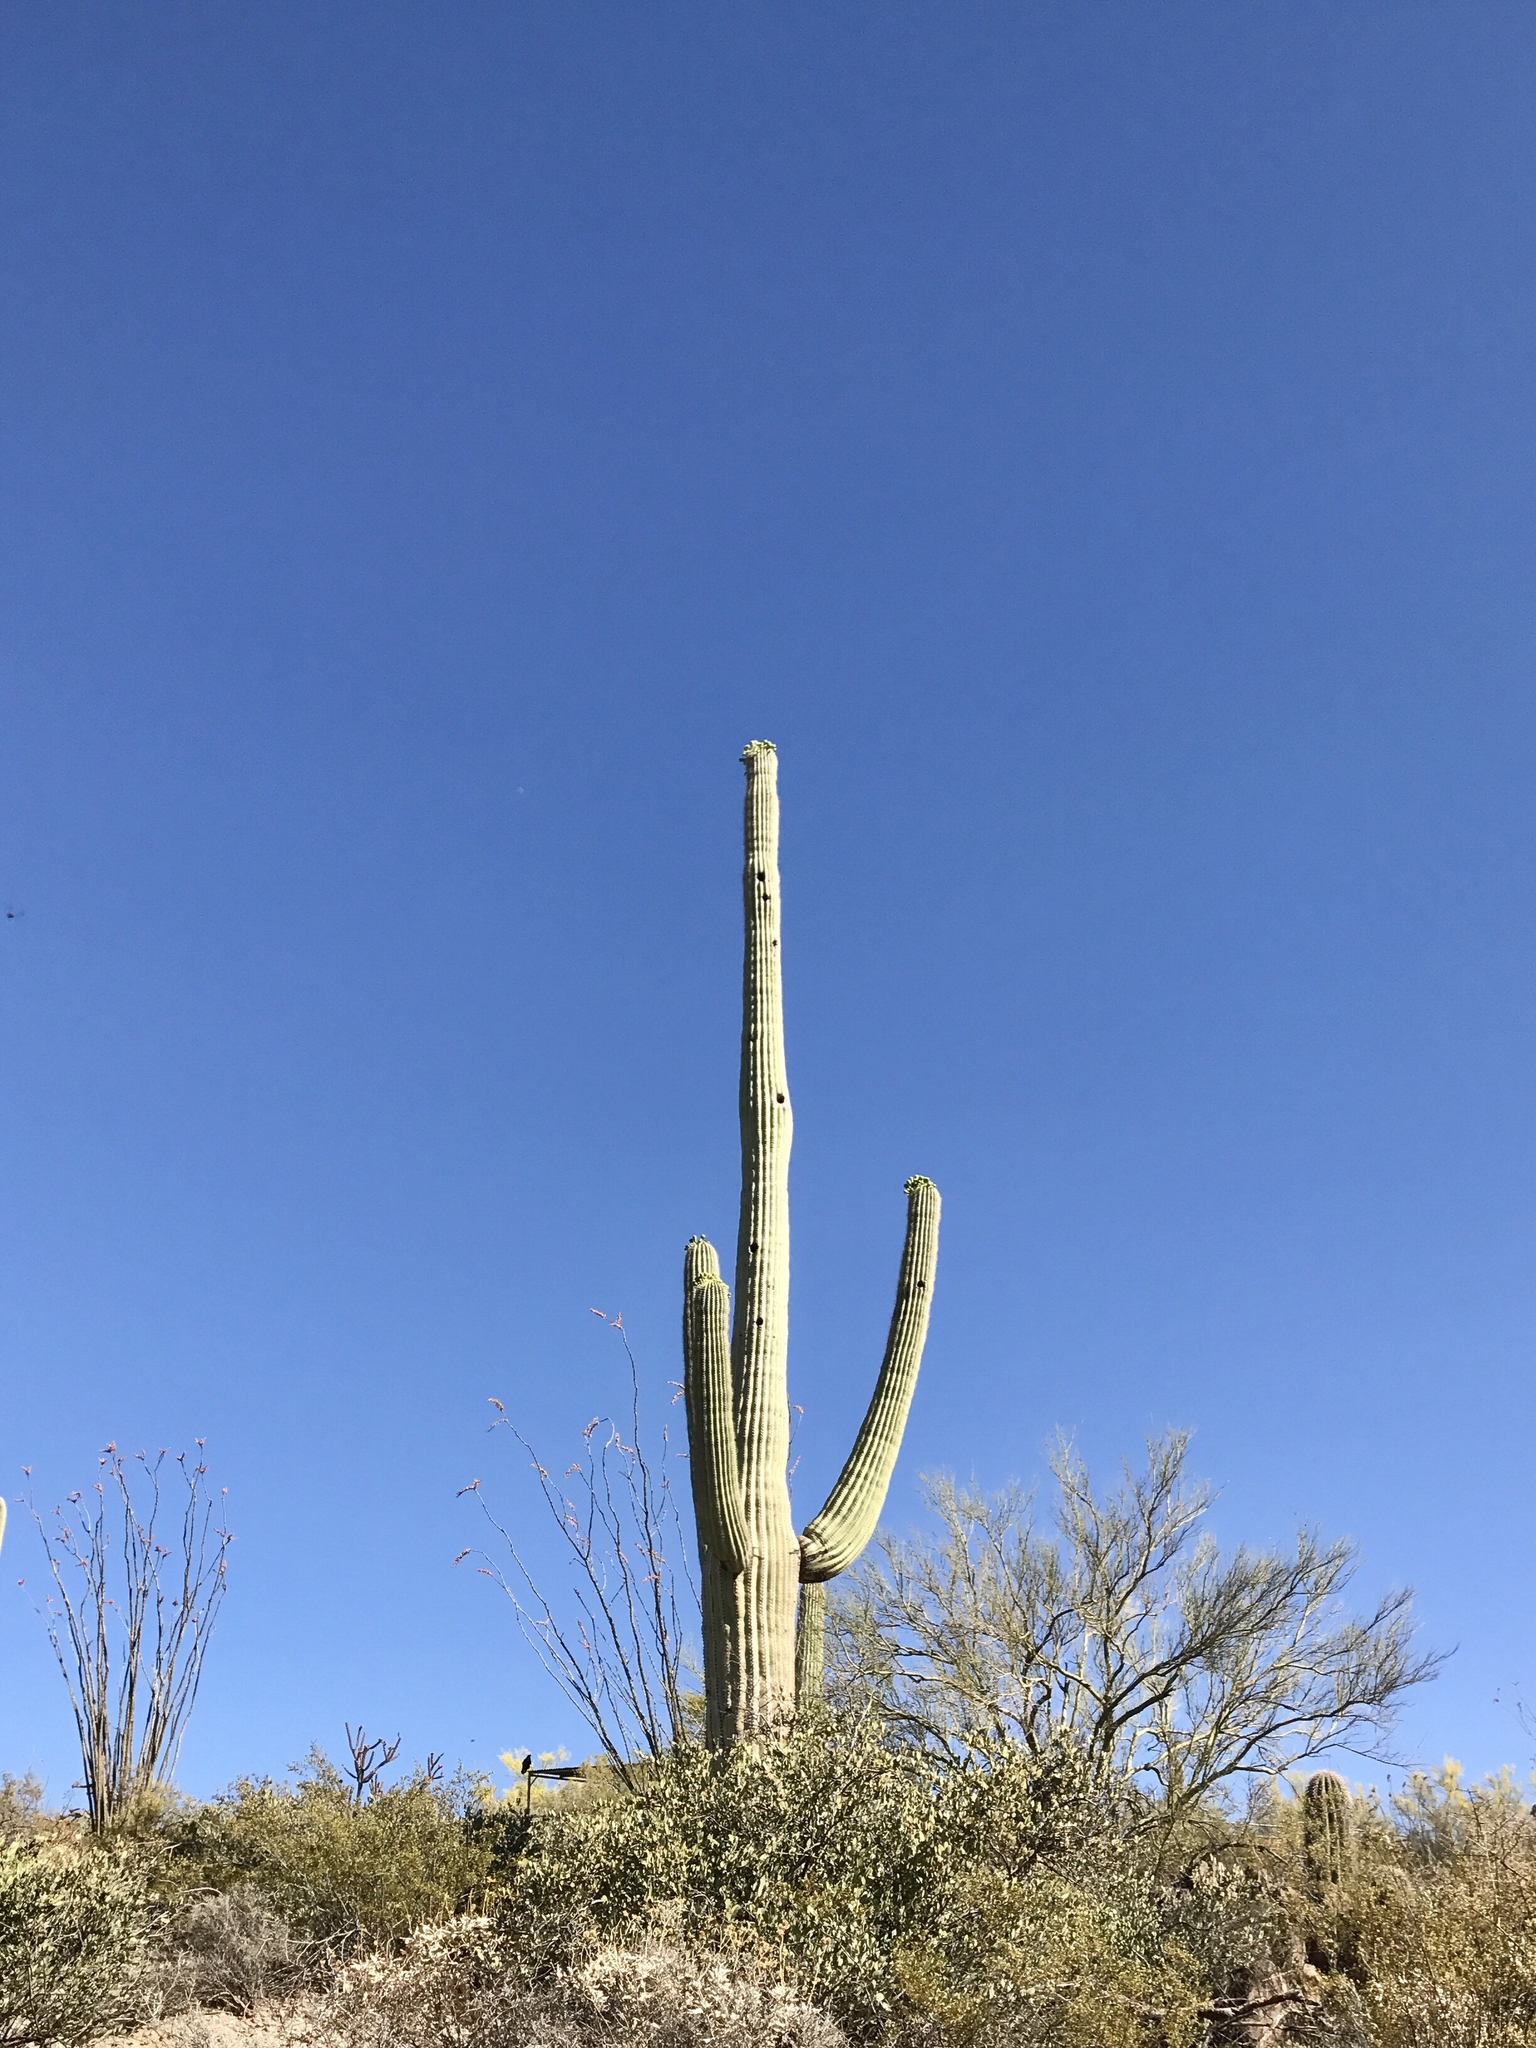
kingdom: Plantae
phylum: Tracheophyta
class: Magnoliopsida
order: Caryophyllales
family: Cactaceae
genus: Carnegiea
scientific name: Carnegiea gigantea
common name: Saguaro
